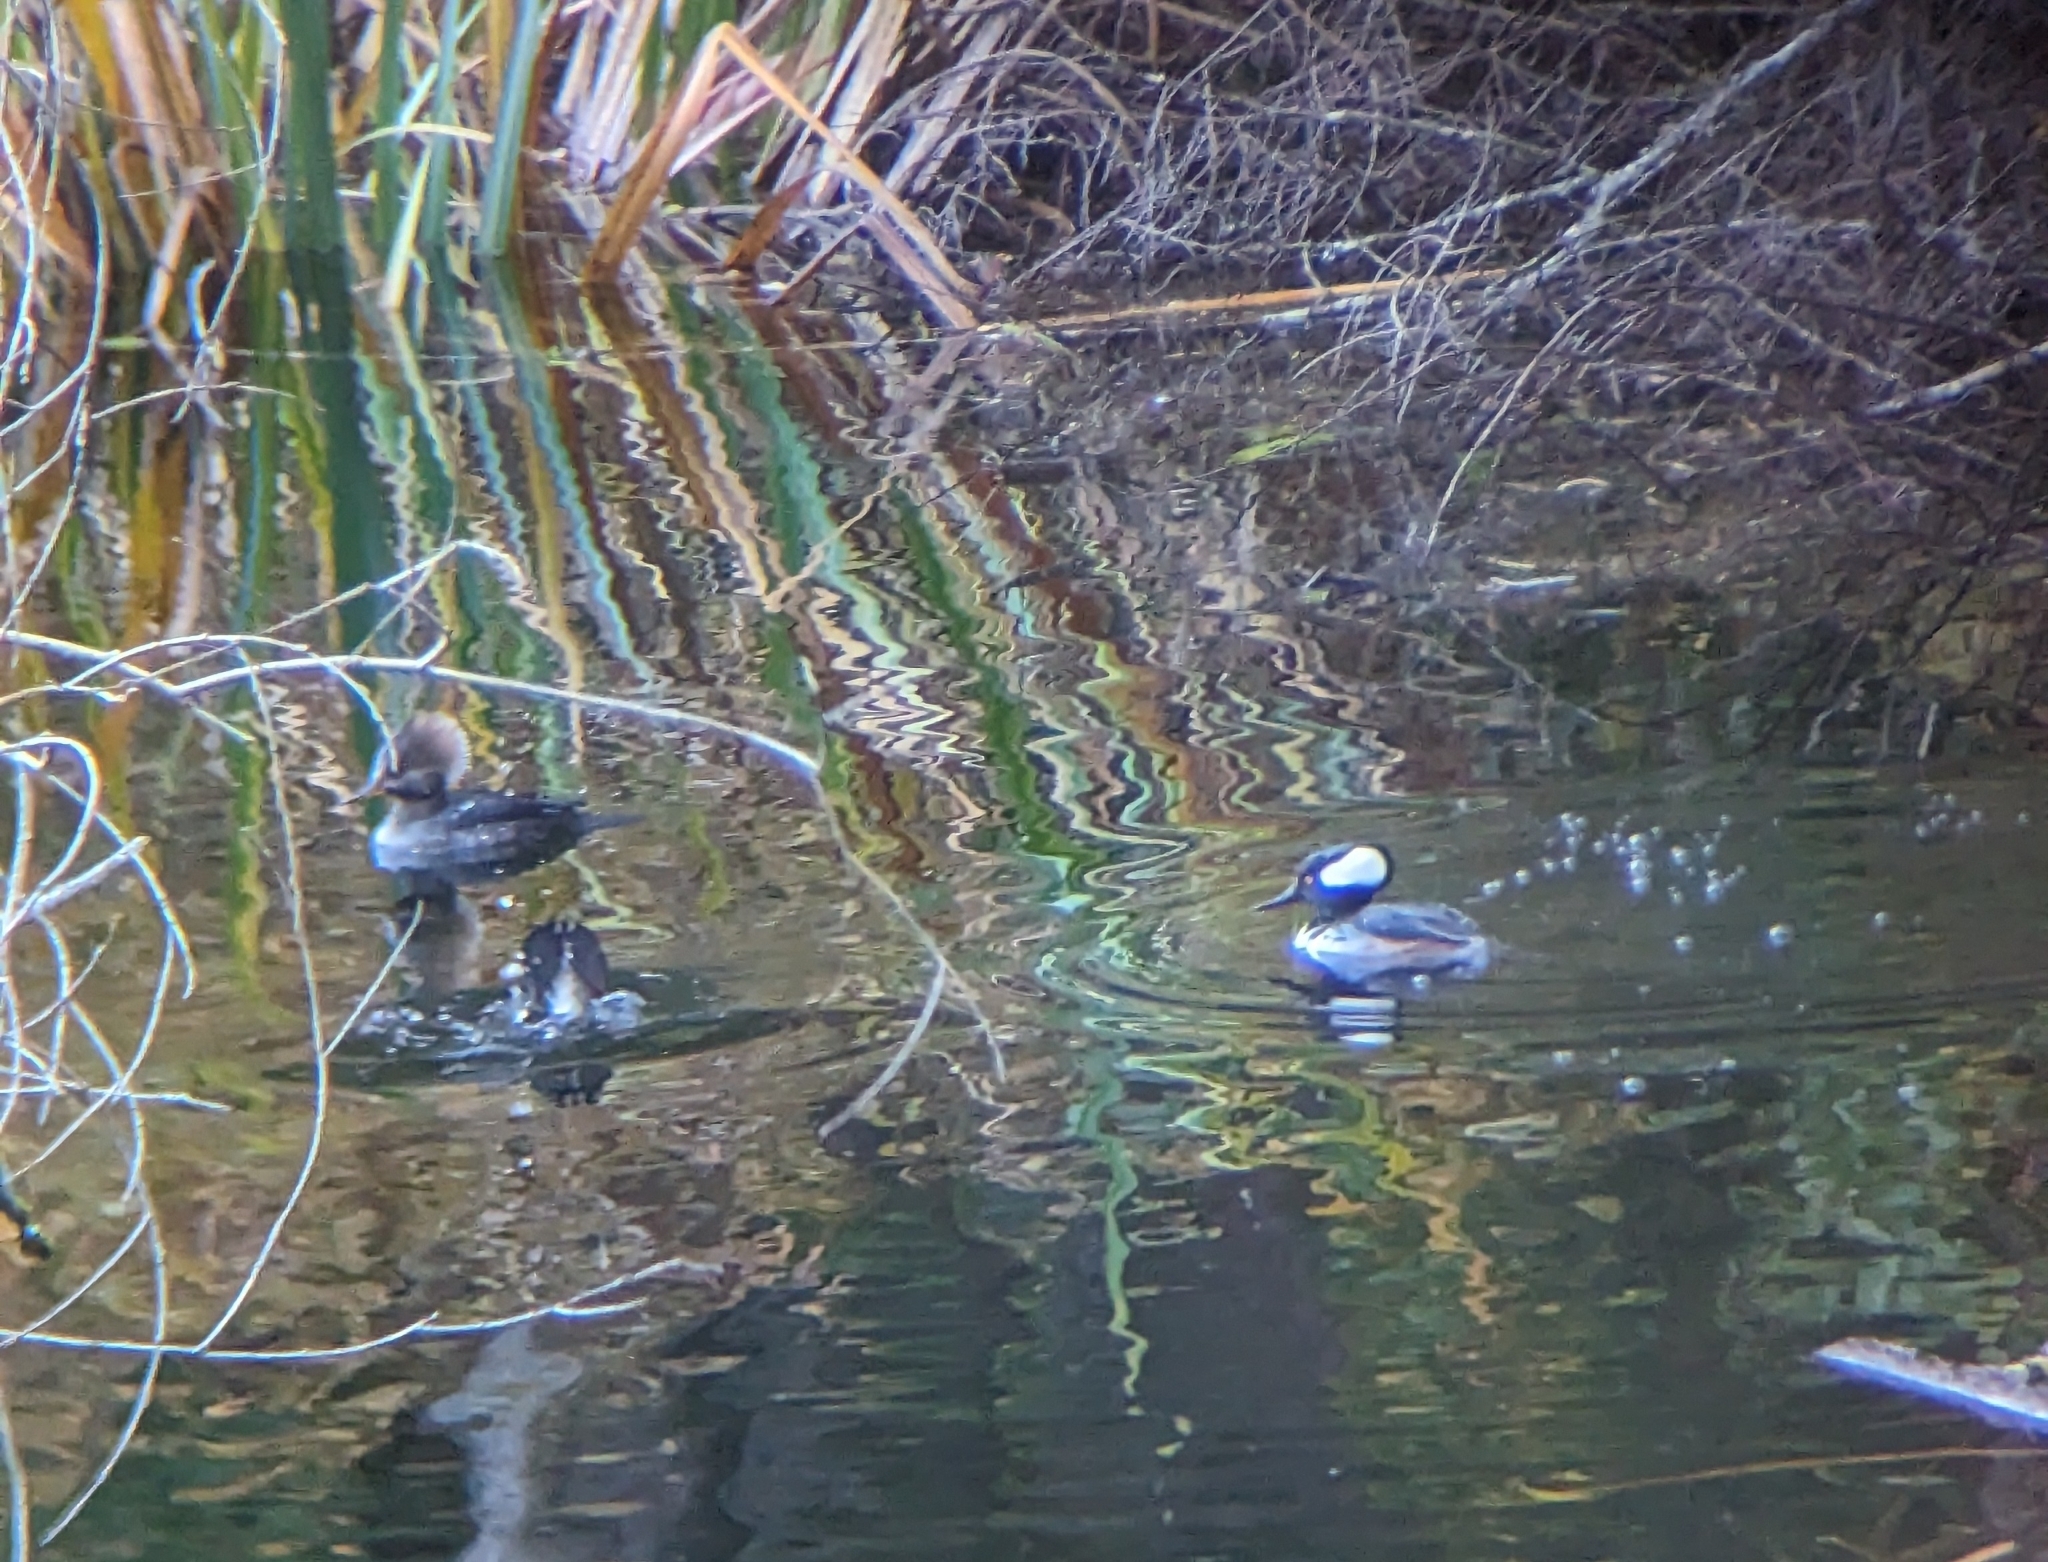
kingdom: Animalia
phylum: Chordata
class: Aves
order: Anseriformes
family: Anatidae
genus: Lophodytes
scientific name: Lophodytes cucullatus
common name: Hooded merganser
